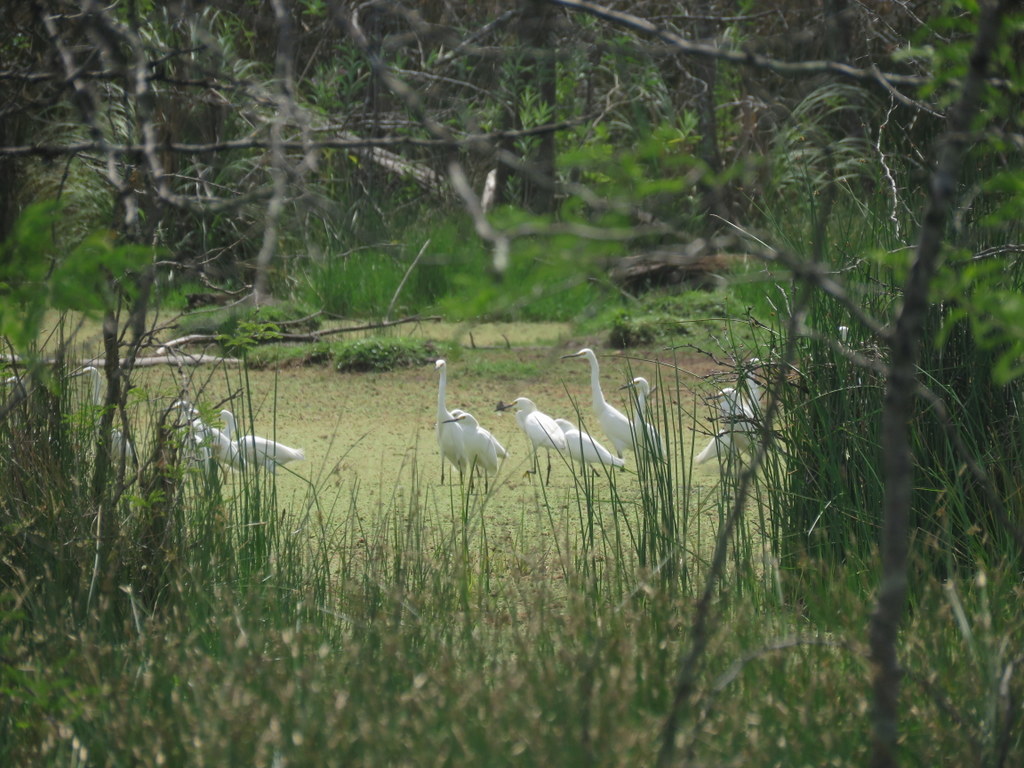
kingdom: Animalia
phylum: Chordata
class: Aves
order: Pelecaniformes
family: Ardeidae
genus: Egretta
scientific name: Egretta thula
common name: Snowy egret
